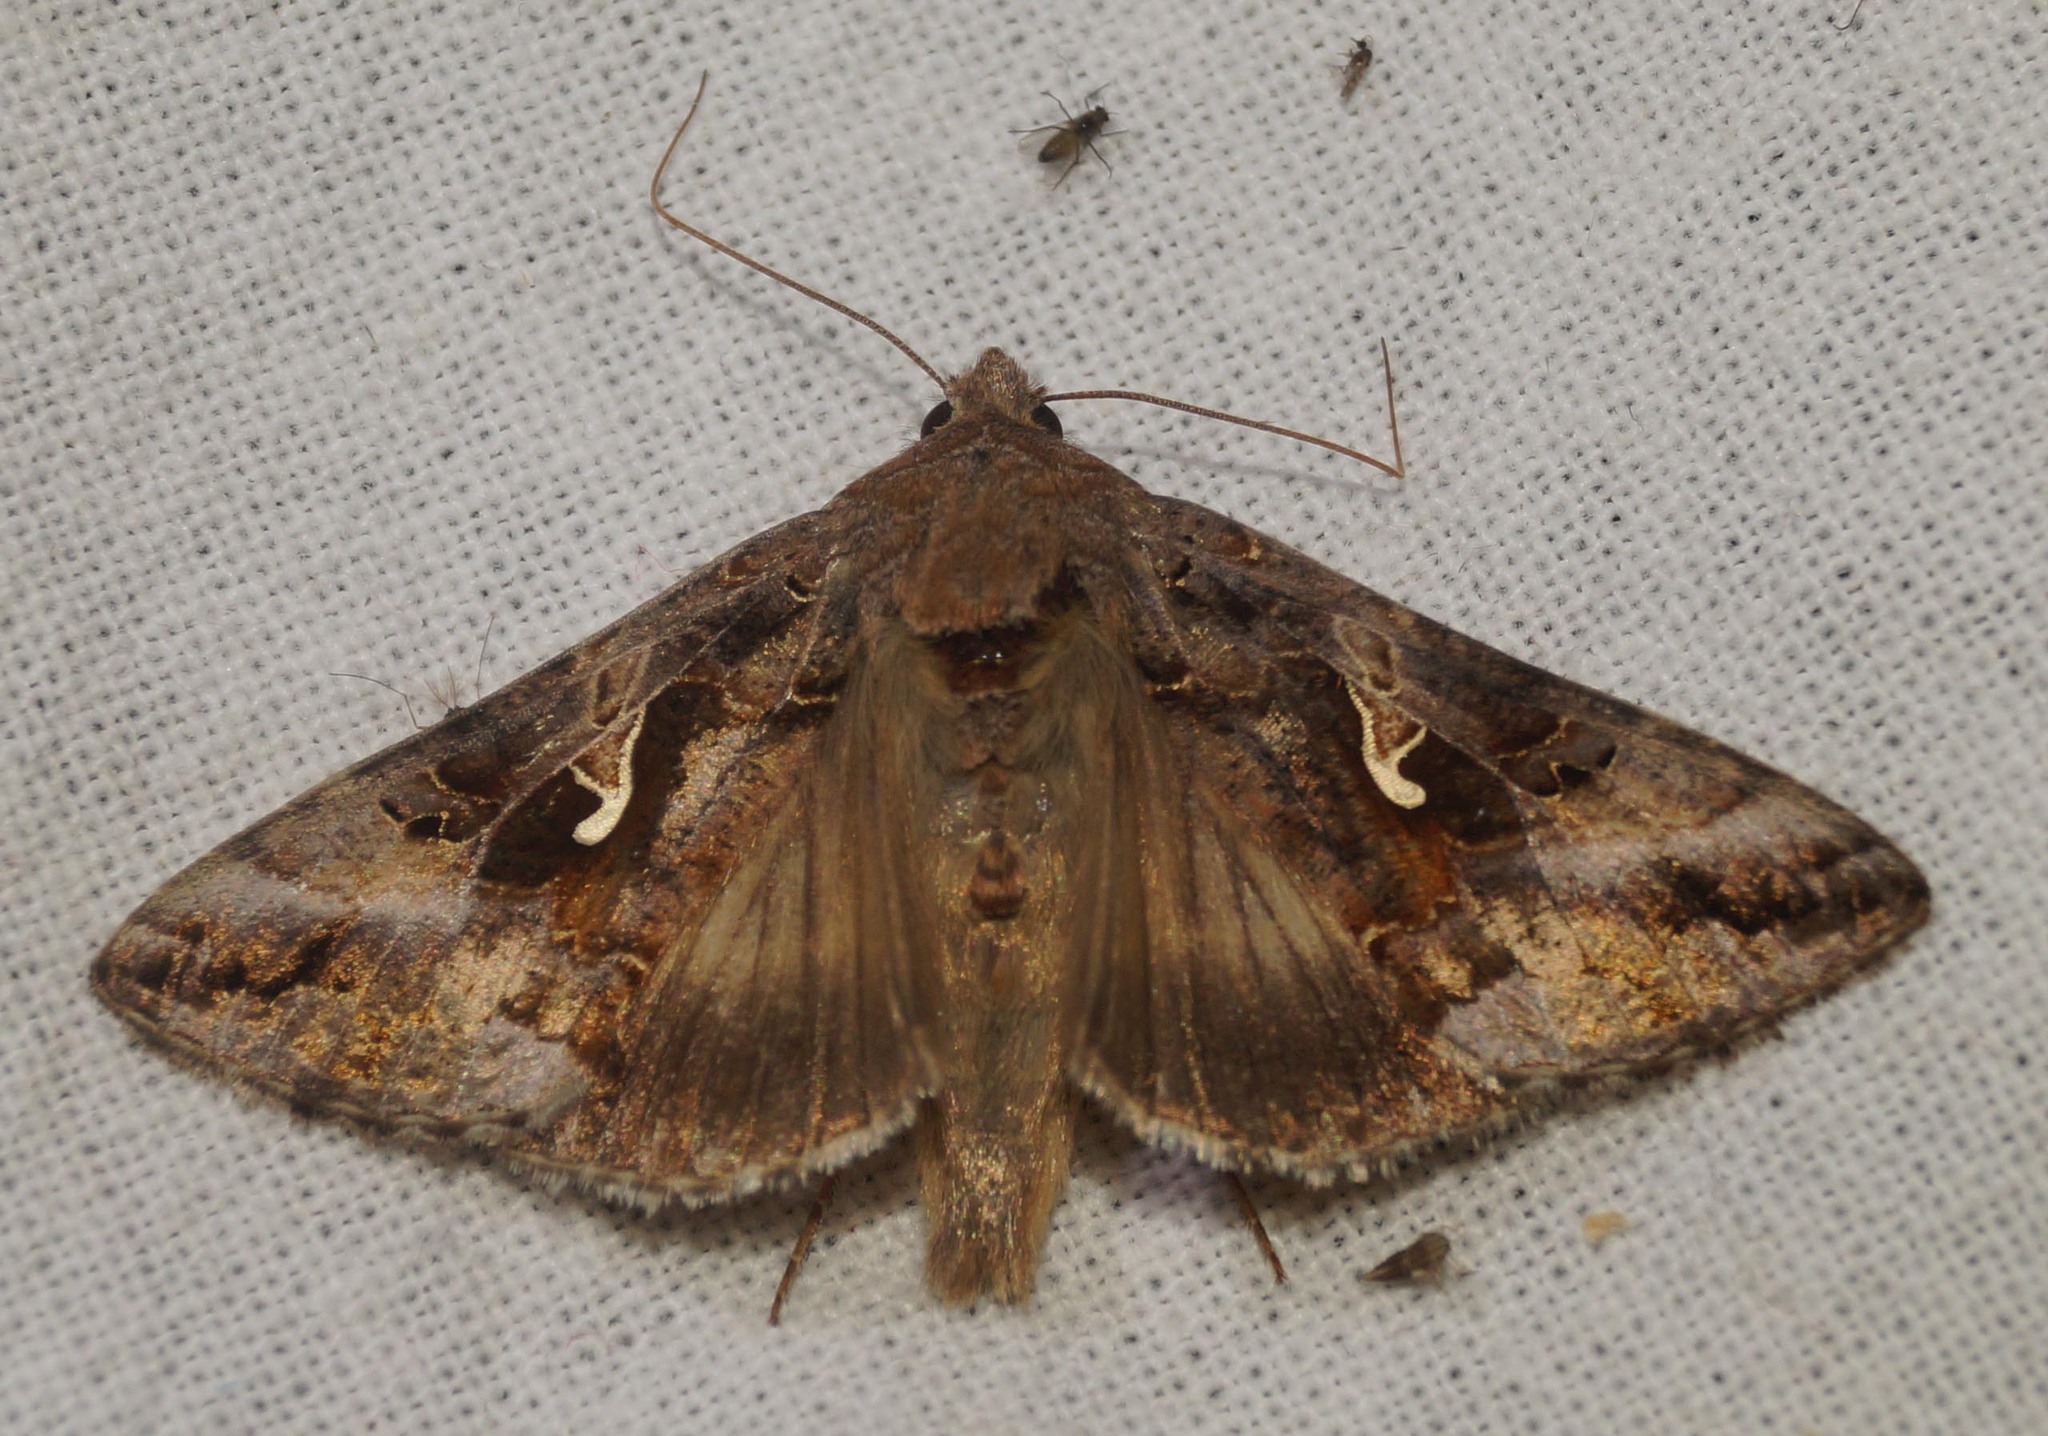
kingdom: Animalia
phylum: Arthropoda
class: Insecta
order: Lepidoptera
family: Noctuidae
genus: Autographa
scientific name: Autographa gamma
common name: Silver y
